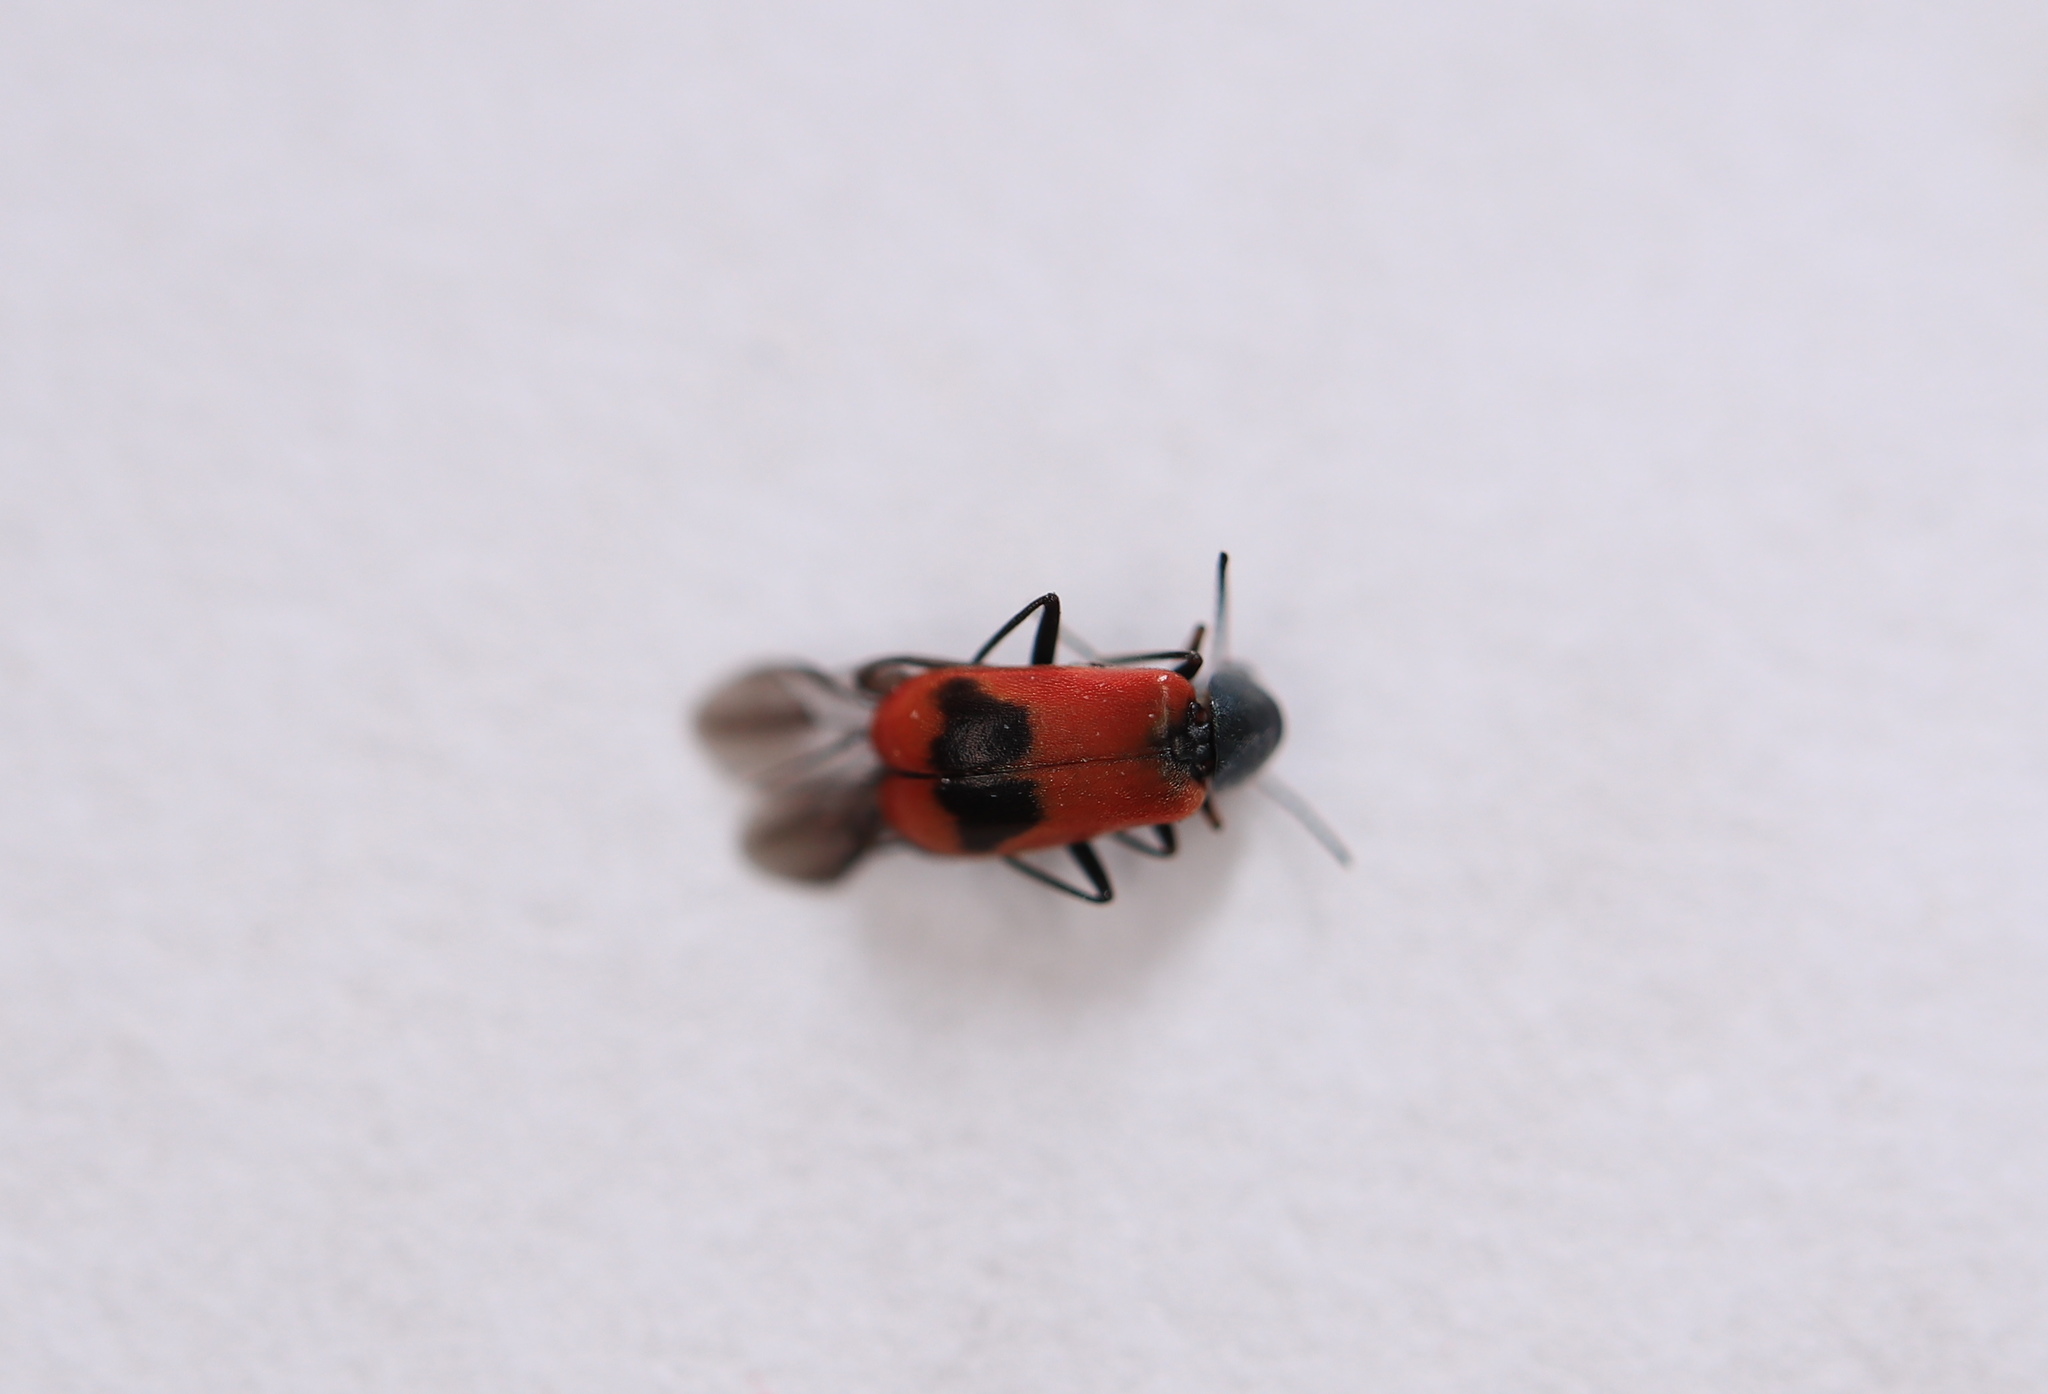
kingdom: Animalia
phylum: Arthropoda
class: Insecta
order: Coleoptera
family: Melyridae
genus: Anthocomus
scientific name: Anthocomus equestris
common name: Black-banded soft-winged flower beetle
